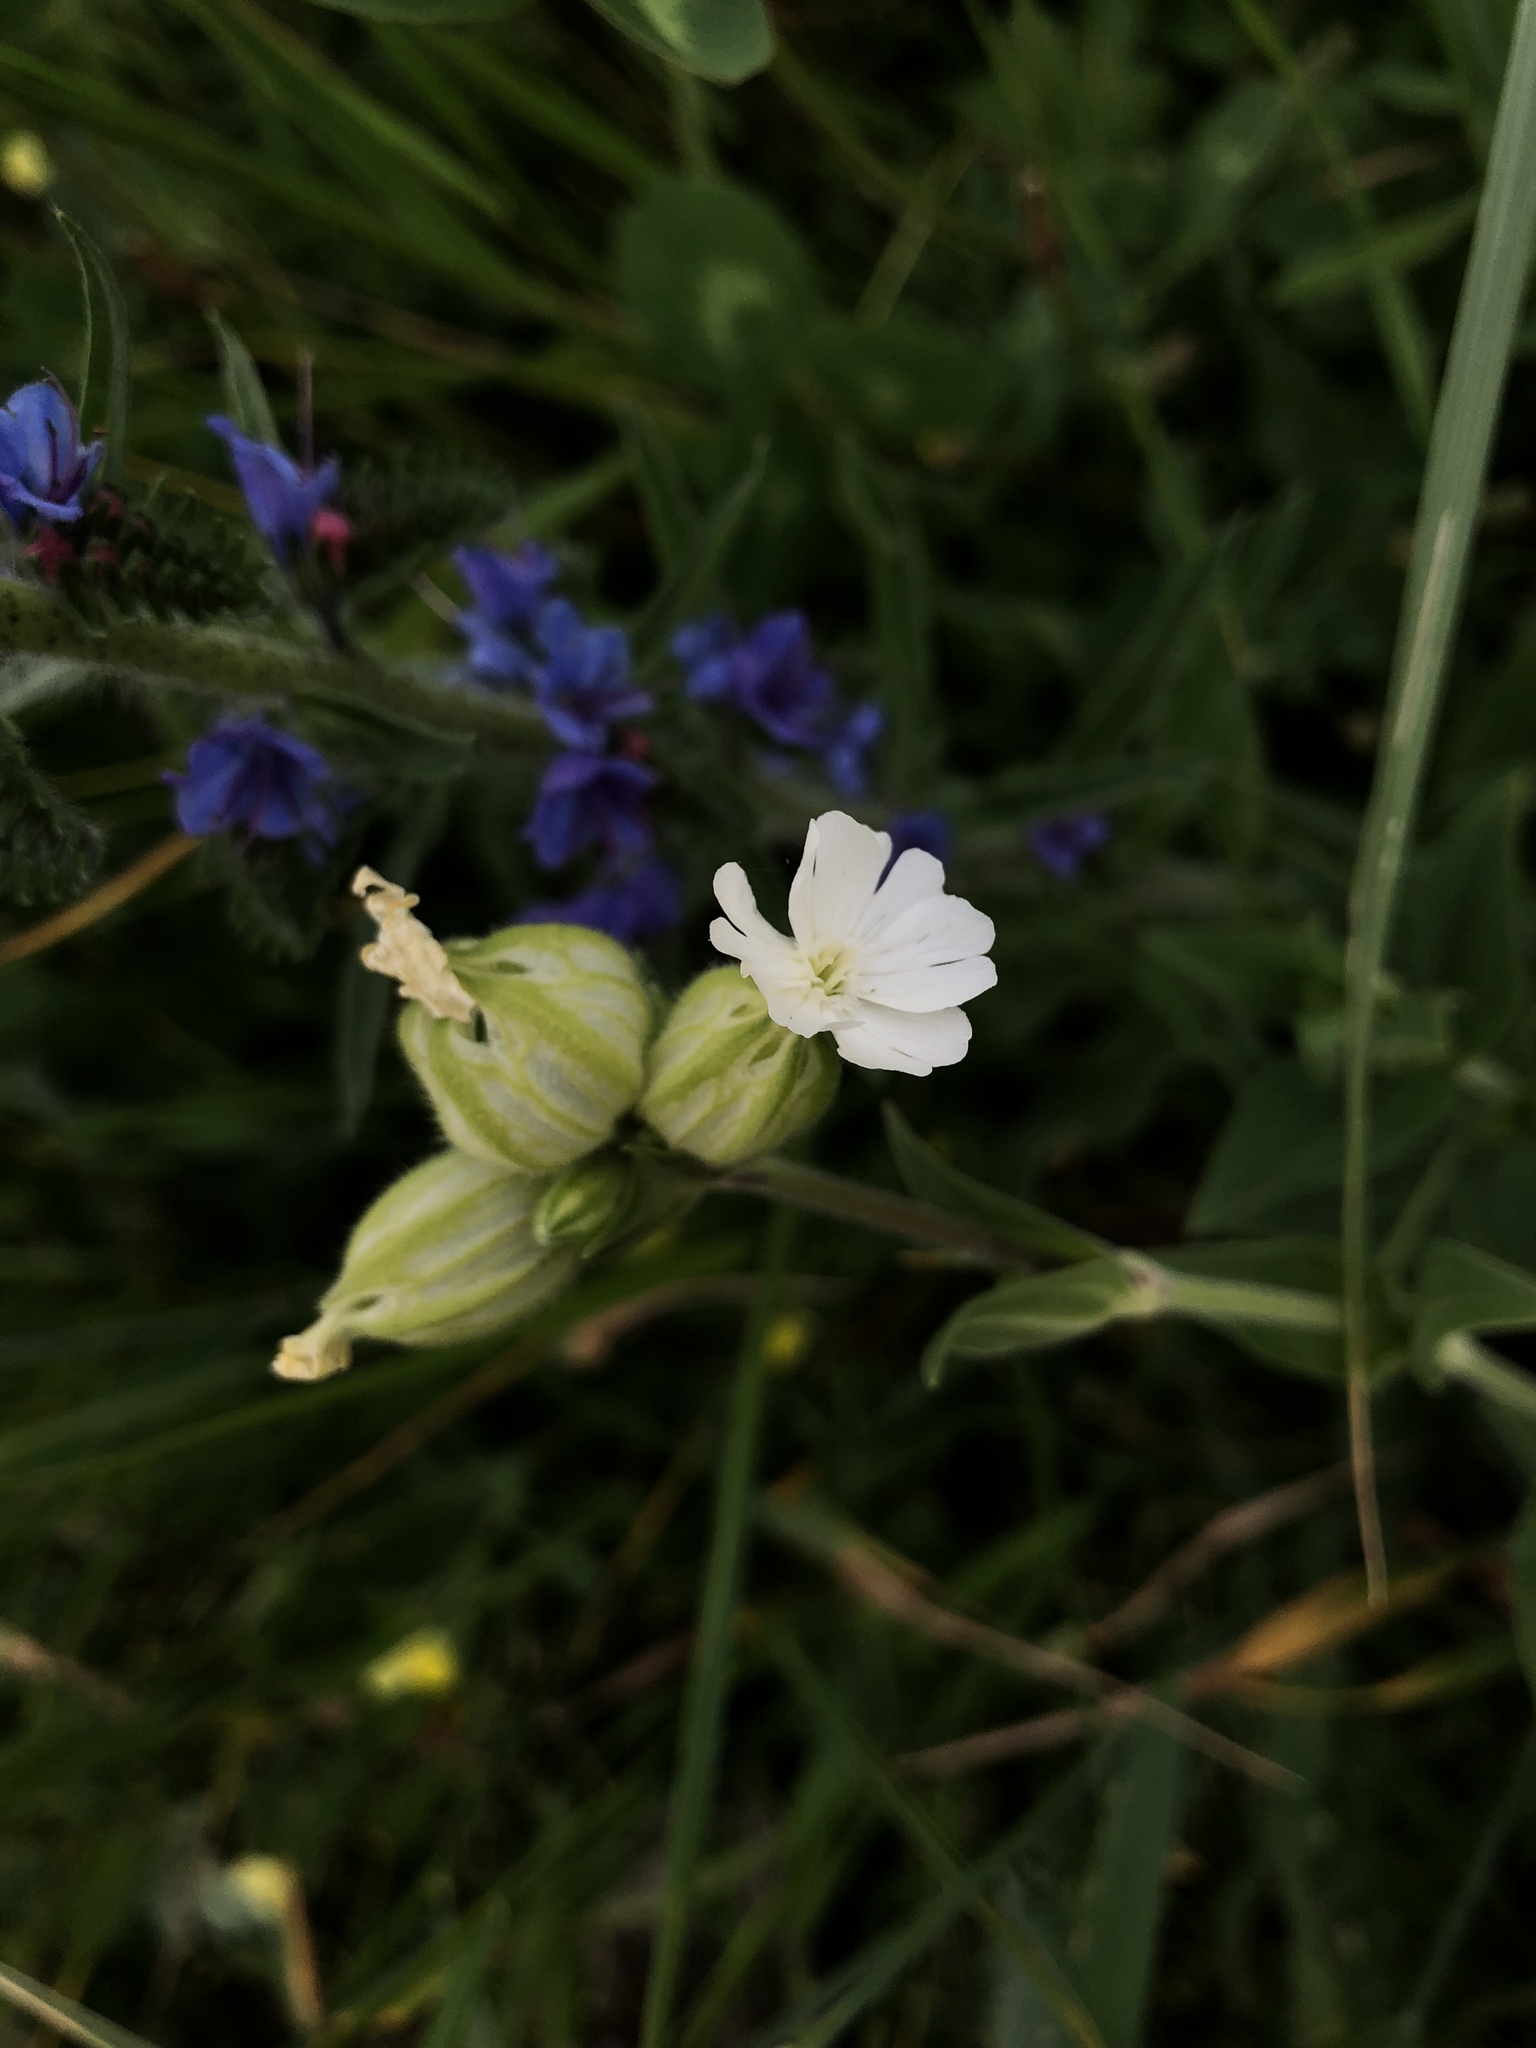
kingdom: Plantae
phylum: Tracheophyta
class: Magnoliopsida
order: Caryophyllales
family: Caryophyllaceae
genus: Silene
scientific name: Silene latifolia
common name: White campion
